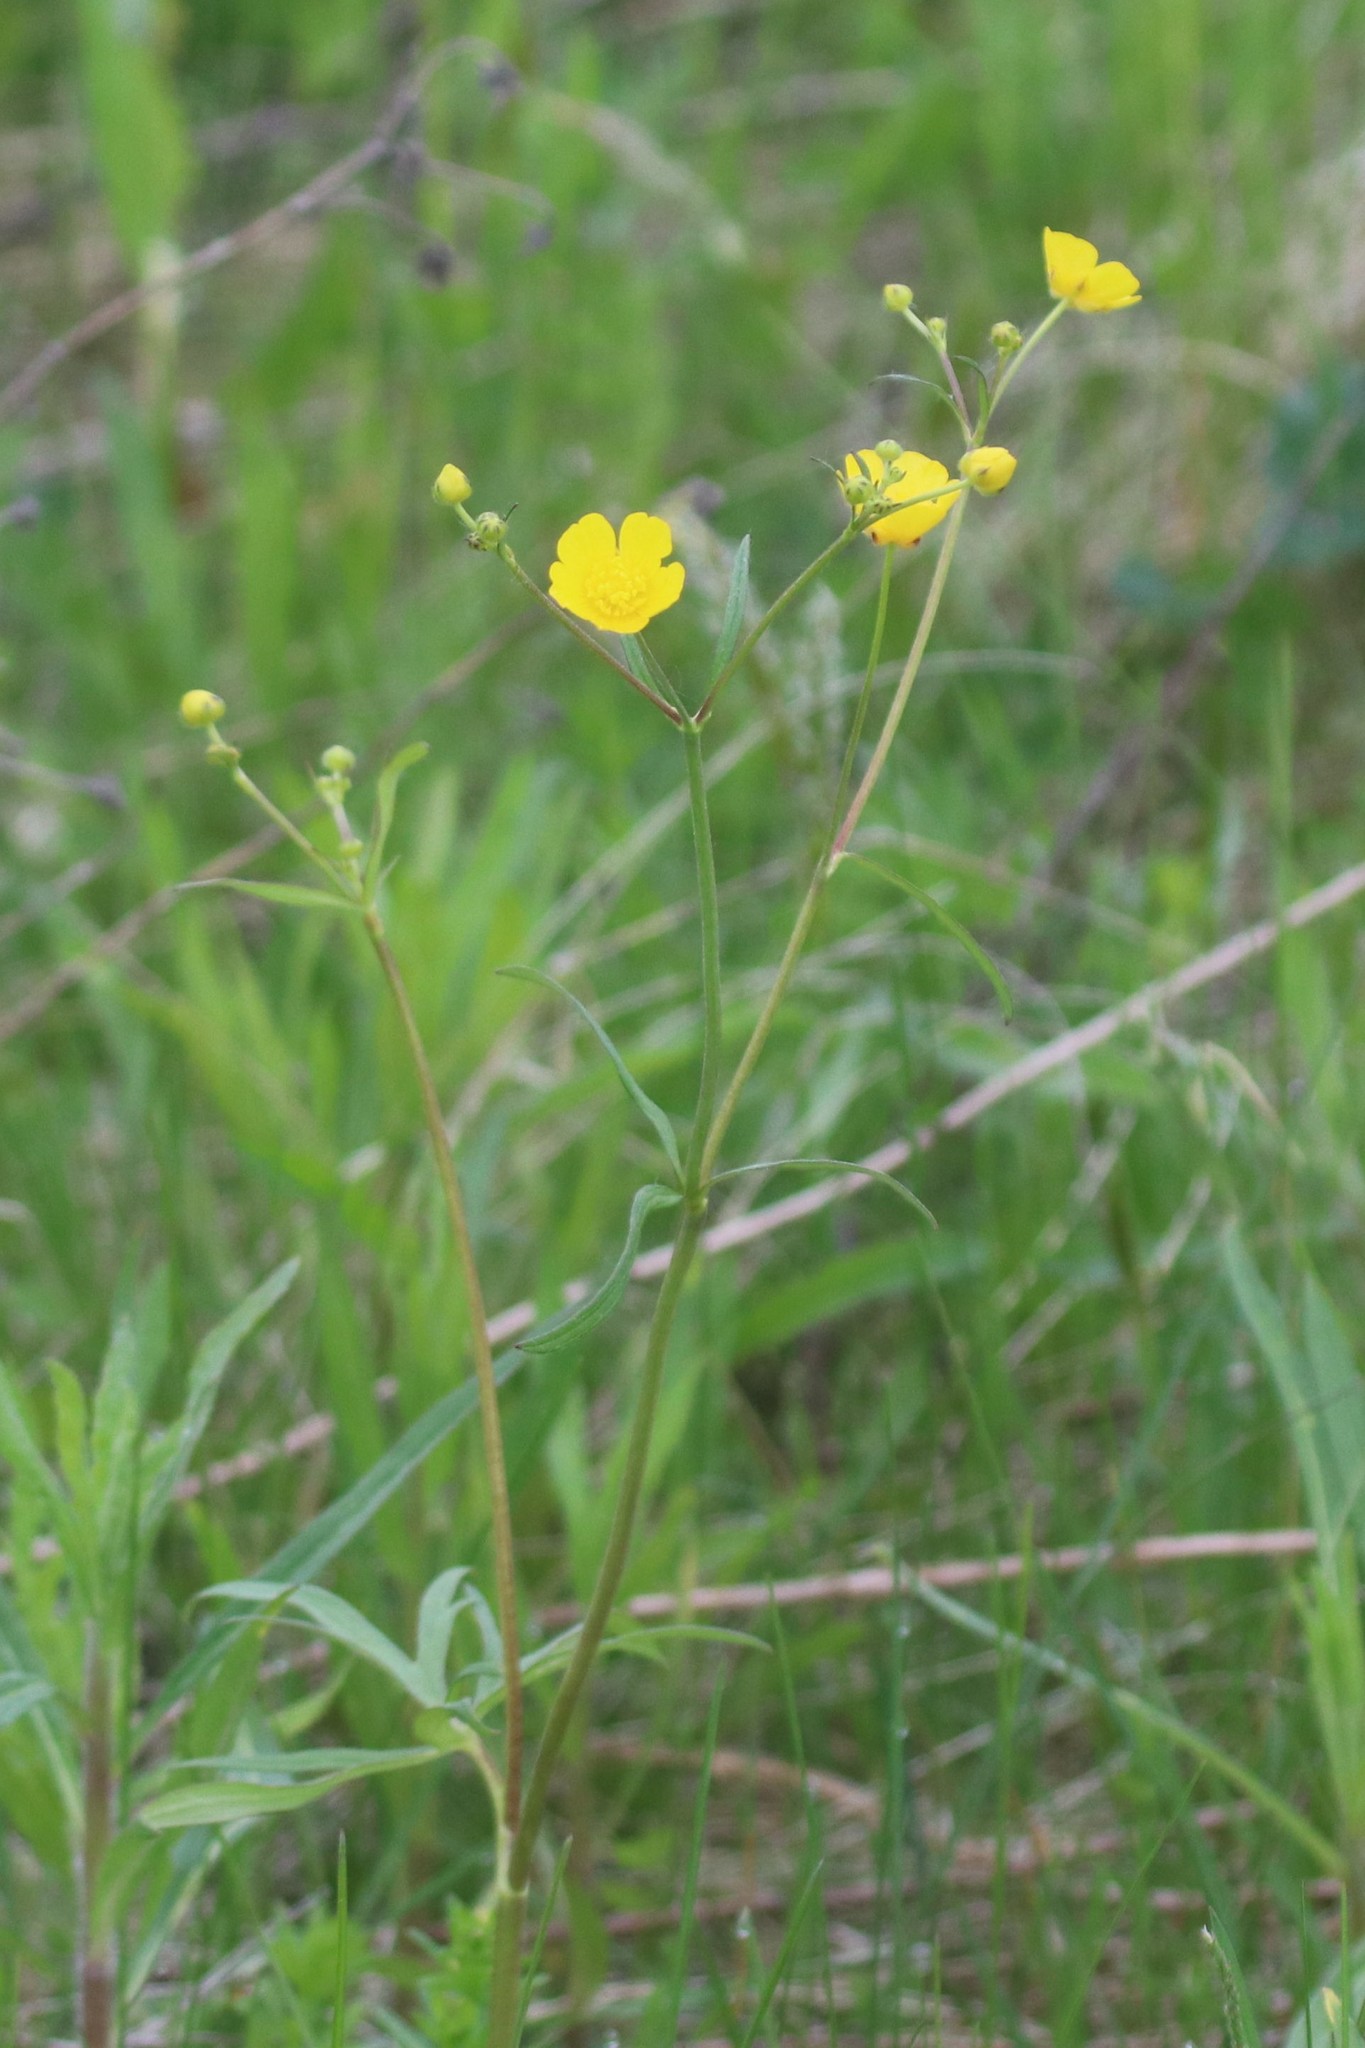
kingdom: Plantae
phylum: Tracheophyta
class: Magnoliopsida
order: Ranunculales
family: Ranunculaceae
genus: Ranunculus
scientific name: Ranunculus acris
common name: Meadow buttercup
